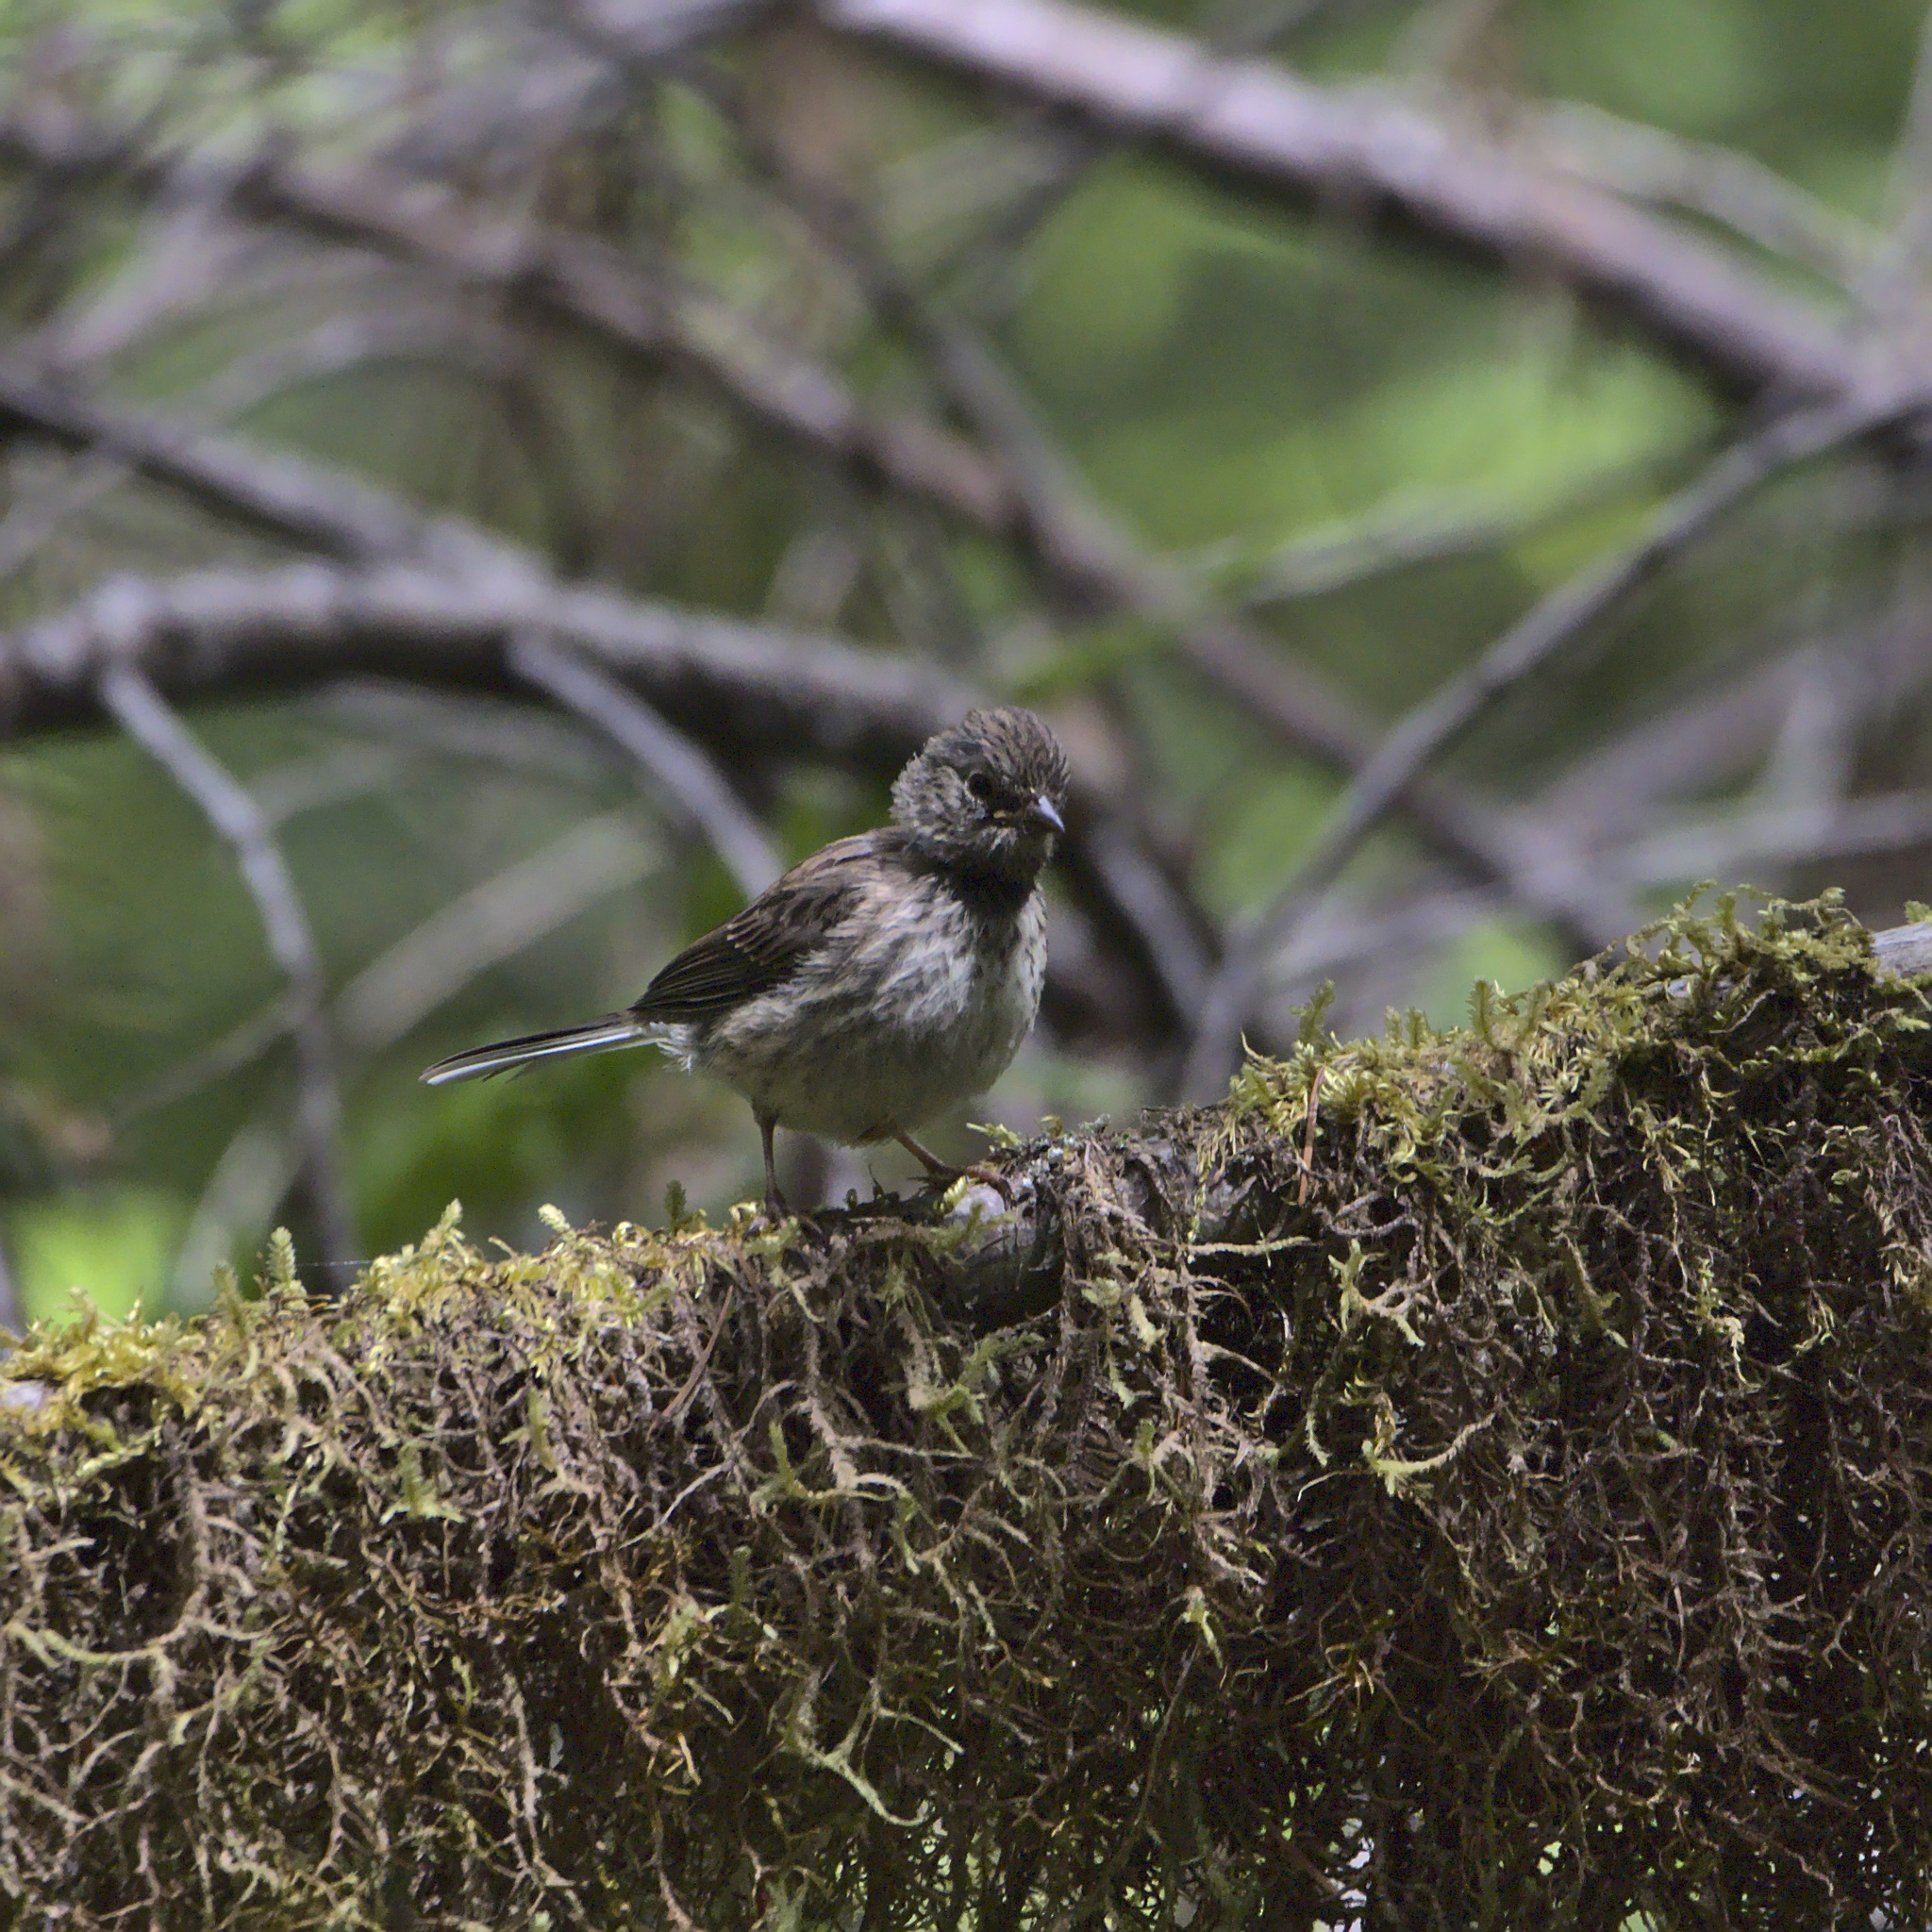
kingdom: Animalia
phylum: Chordata
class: Aves
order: Passeriformes
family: Passerellidae
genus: Junco
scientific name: Junco hyemalis
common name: Dark-eyed junco
